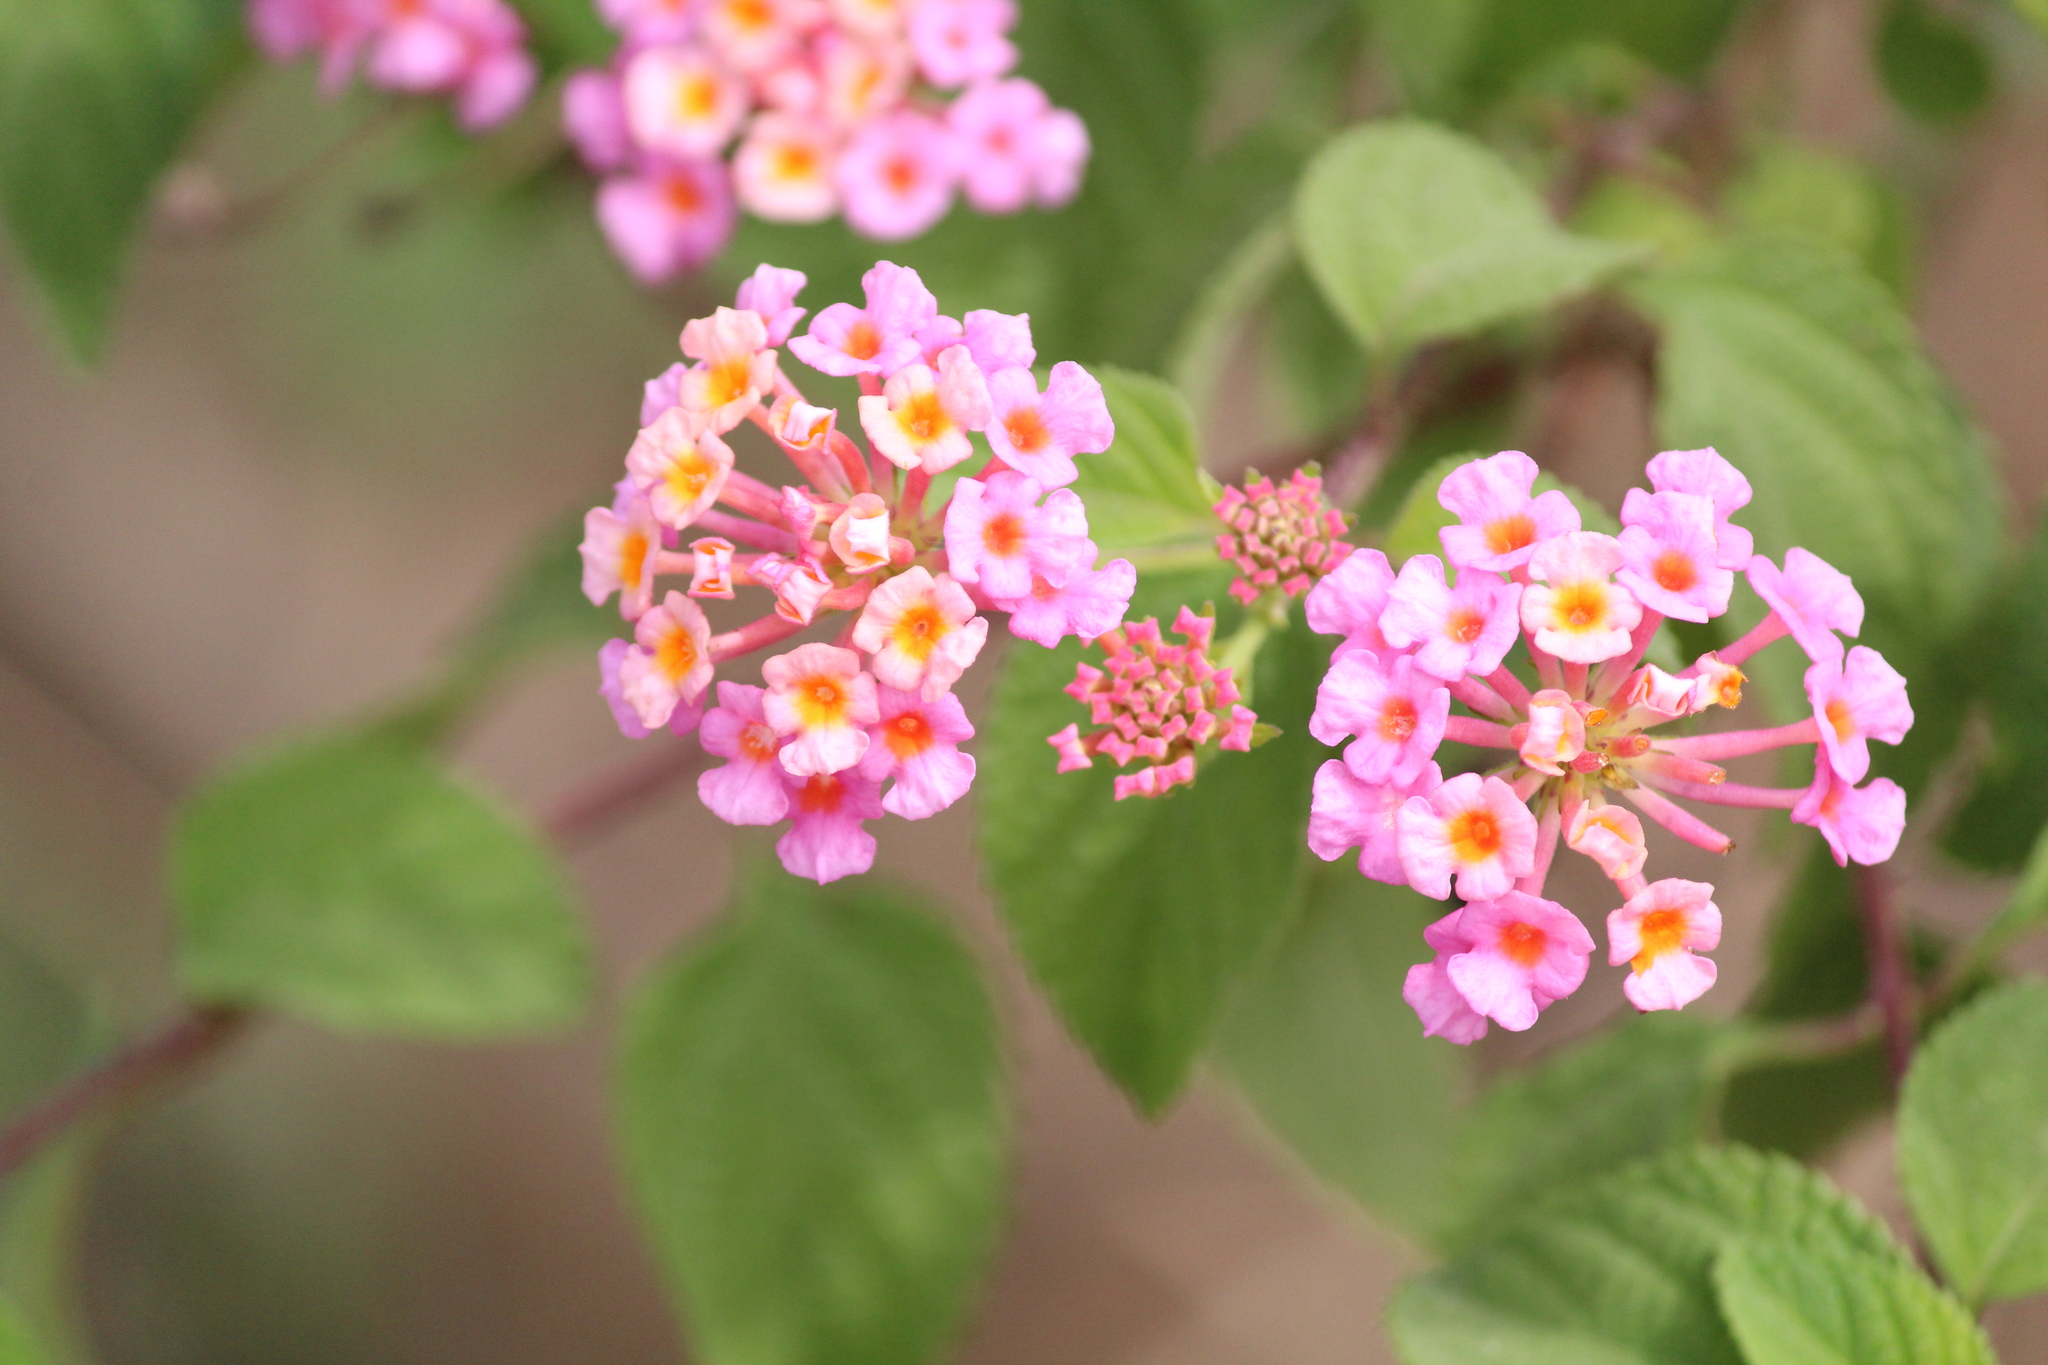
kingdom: Plantae
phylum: Tracheophyta
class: Magnoliopsida
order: Lamiales
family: Verbenaceae
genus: Lantana
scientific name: Lantana camara
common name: Lantana
